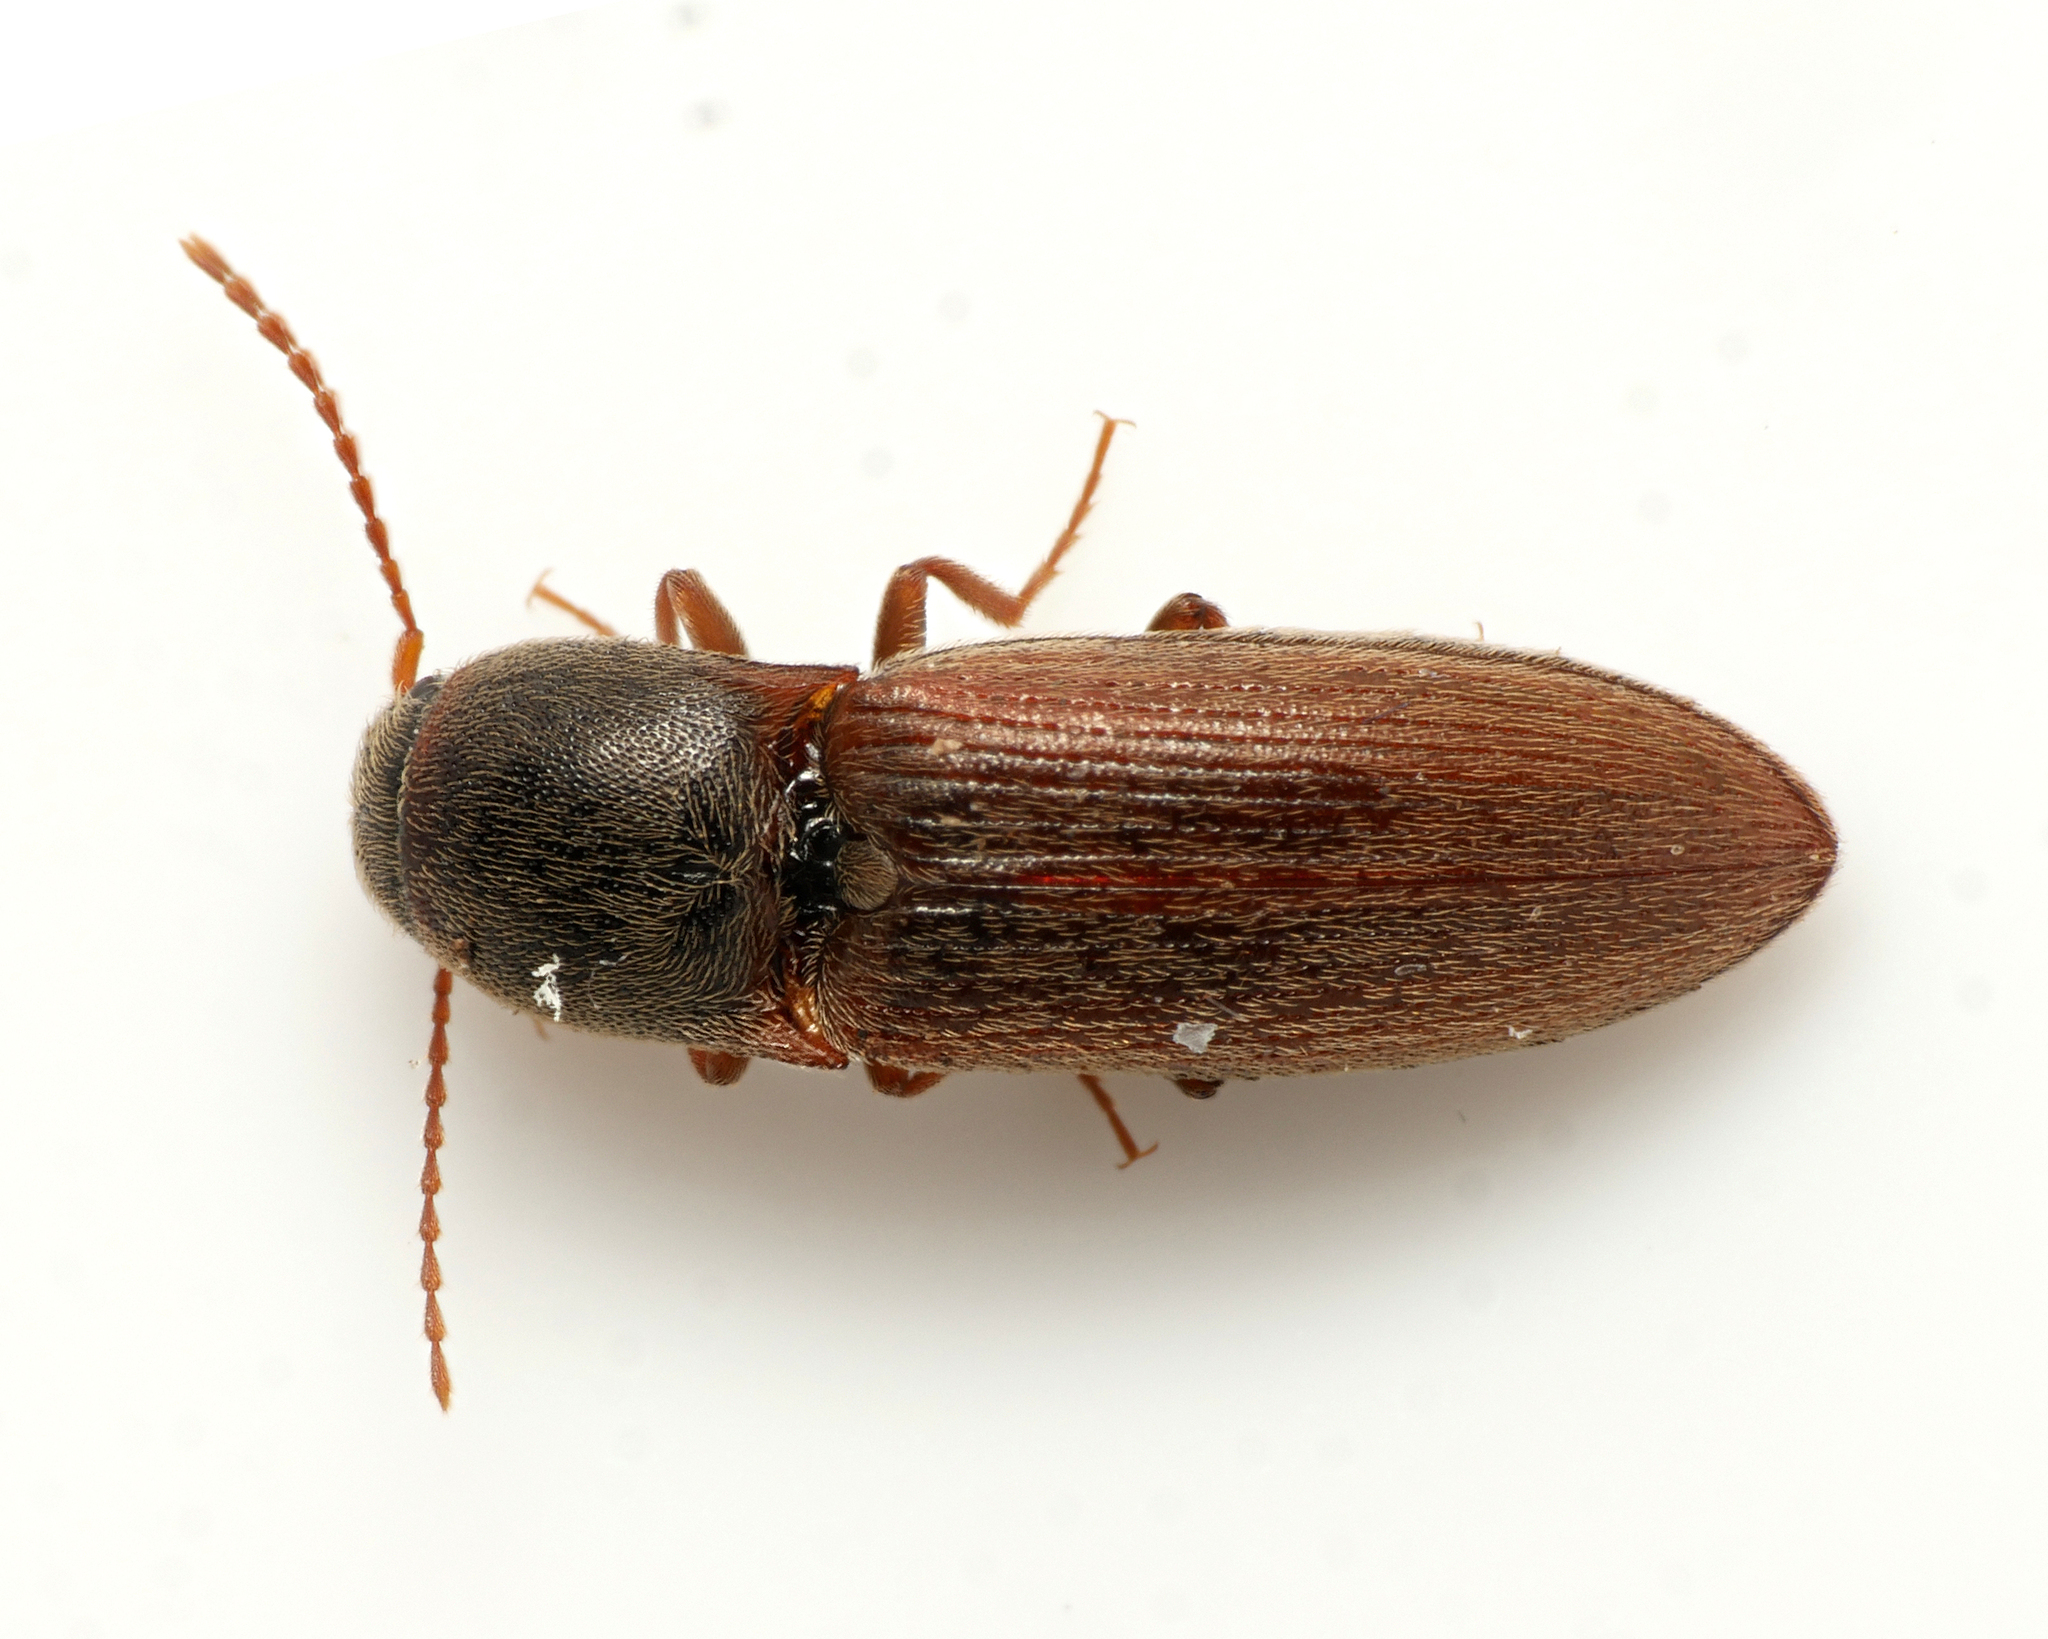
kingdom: Animalia
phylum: Arthropoda
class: Insecta
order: Coleoptera
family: Elateridae
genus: Agriotes
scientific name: Agriotes sputator
